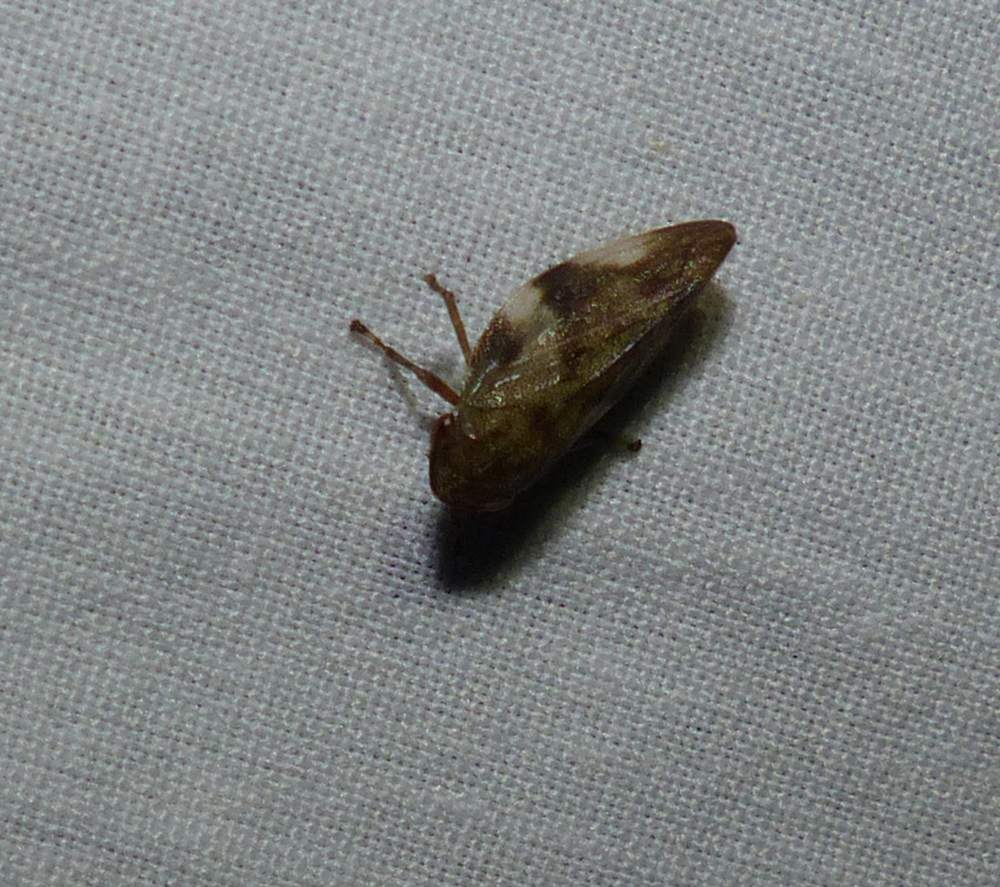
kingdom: Animalia
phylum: Arthropoda
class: Insecta
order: Hemiptera
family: Aphrophoridae
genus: Philaenus
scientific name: Philaenus spumarius
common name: Meadow spittlebug
